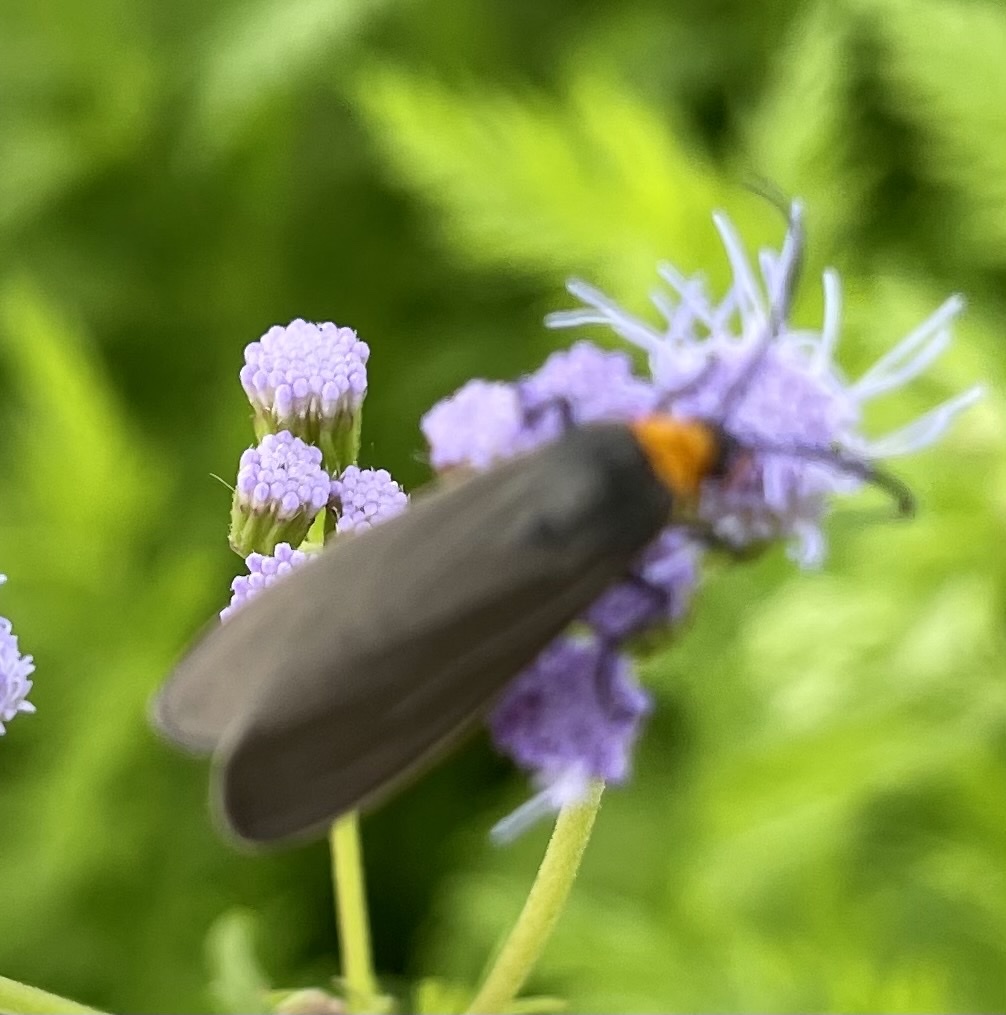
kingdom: Animalia
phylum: Arthropoda
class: Insecta
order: Lepidoptera
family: Erebidae
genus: Cisseps
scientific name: Cisseps fulvicollis
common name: Yellow-collared scape moth
